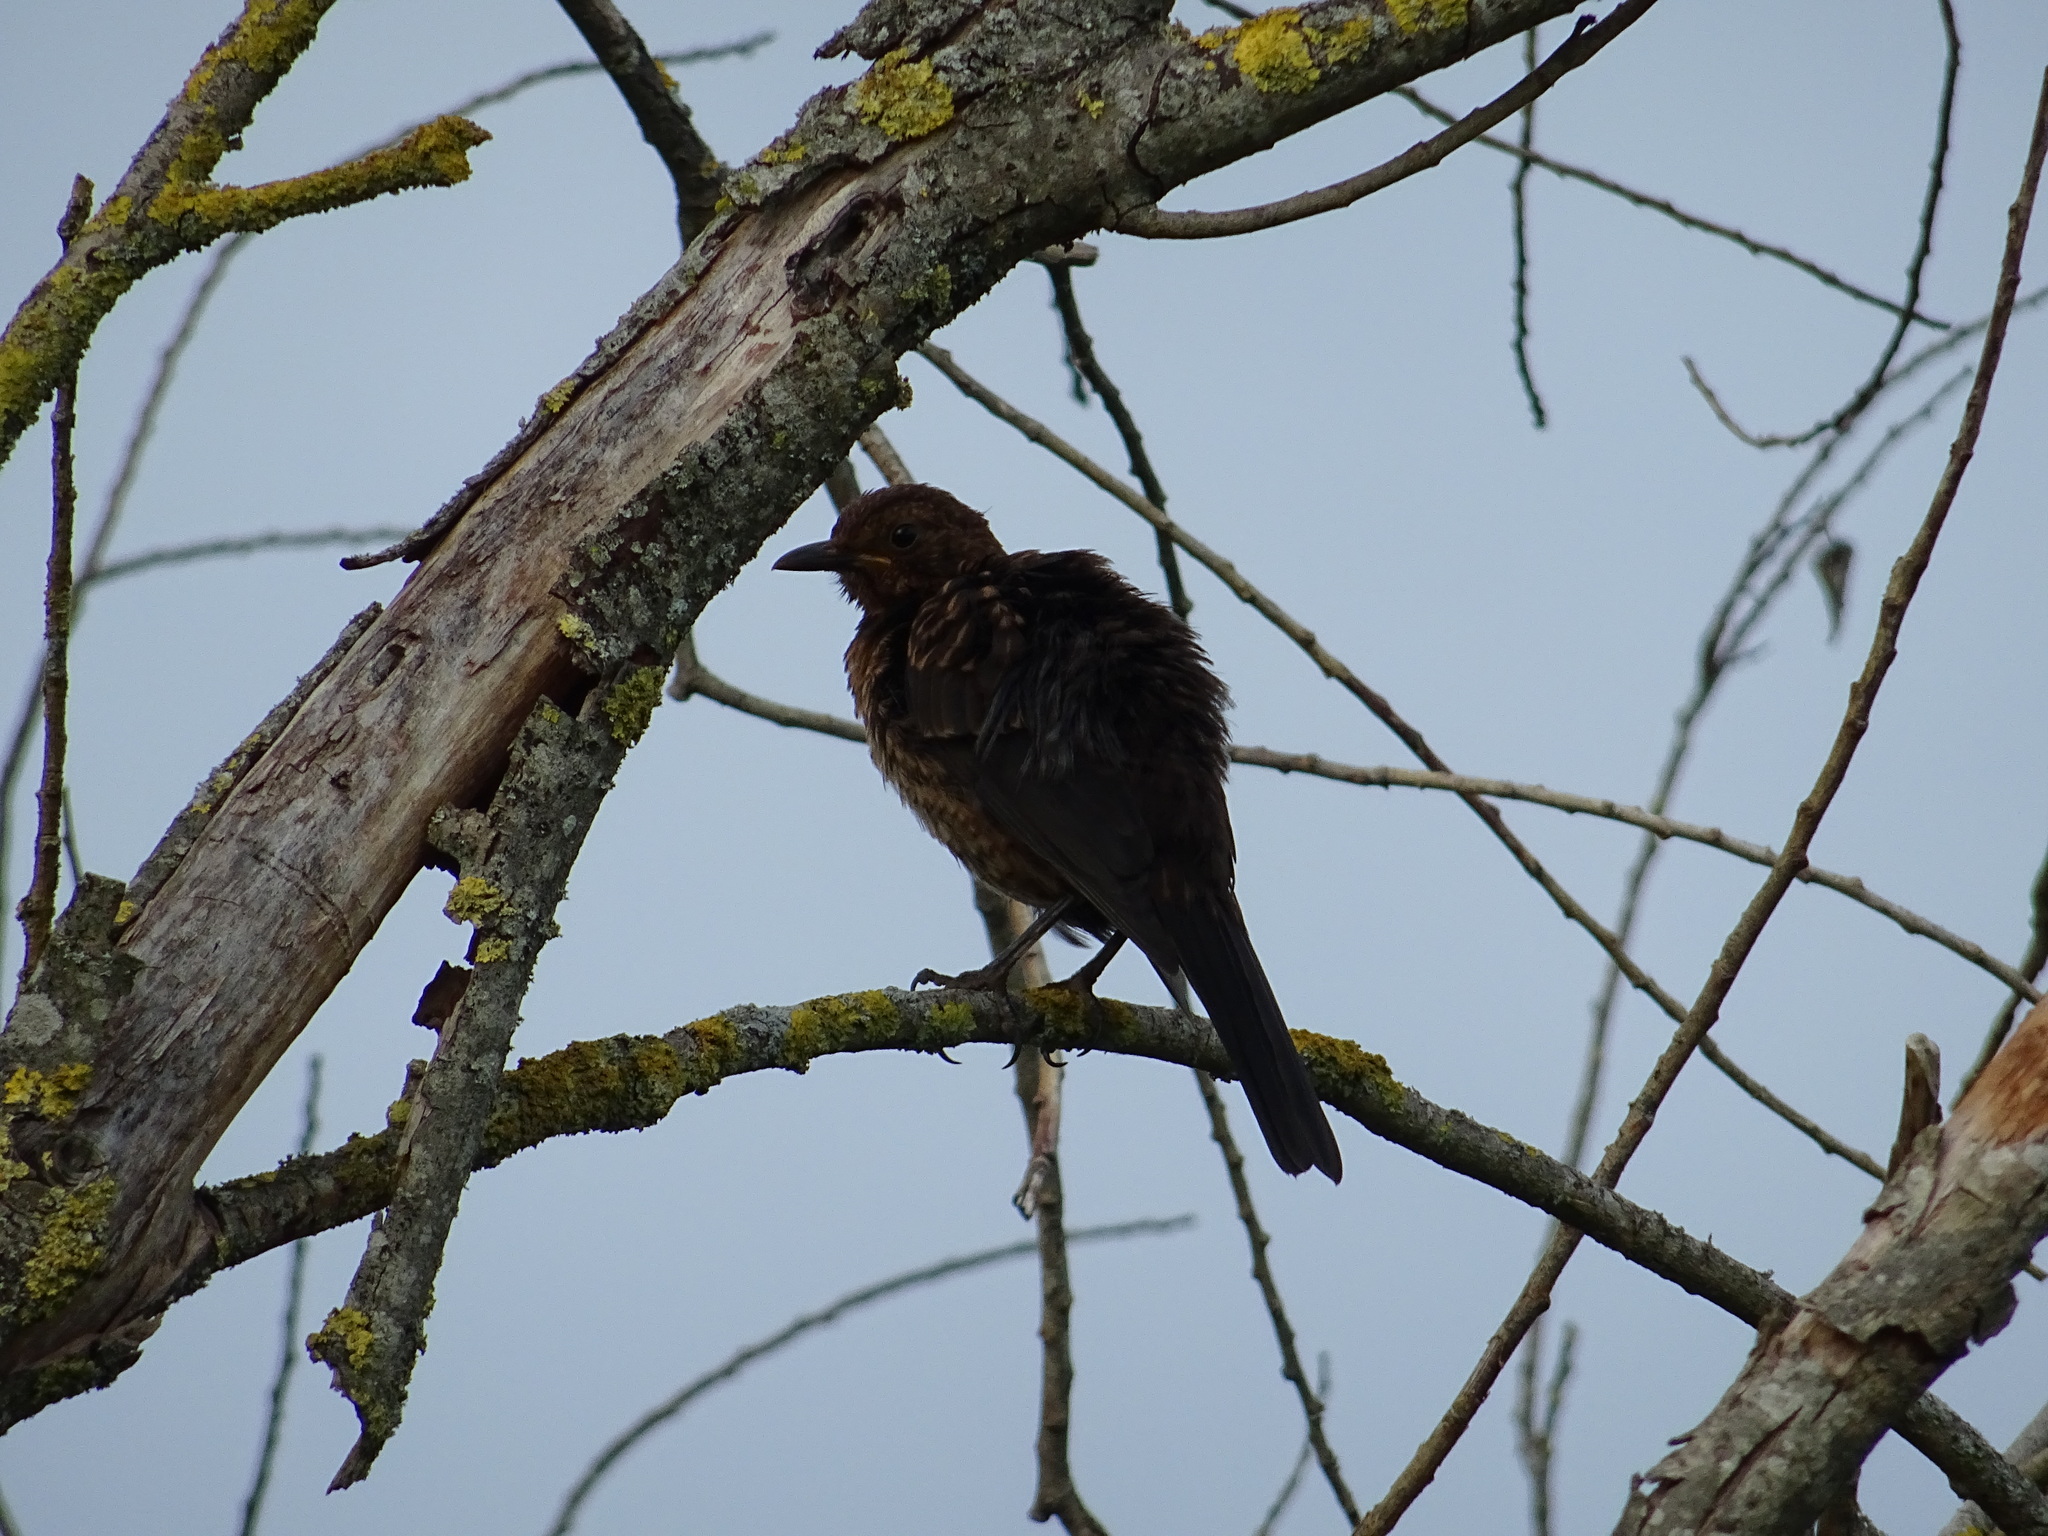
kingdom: Animalia
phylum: Chordata
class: Aves
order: Passeriformes
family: Turdidae
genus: Turdus
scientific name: Turdus merula
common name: Common blackbird
